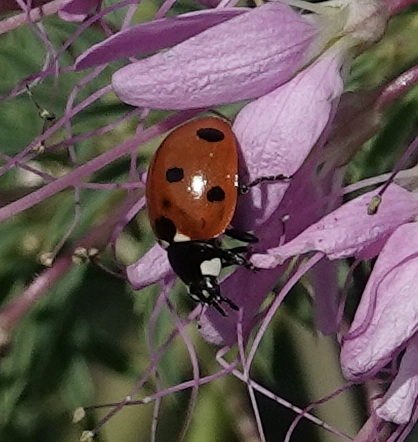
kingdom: Animalia
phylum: Arthropoda
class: Insecta
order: Coleoptera
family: Coccinellidae
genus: Coccinella
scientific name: Coccinella septempunctata
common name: Sevenspotted lady beetle
